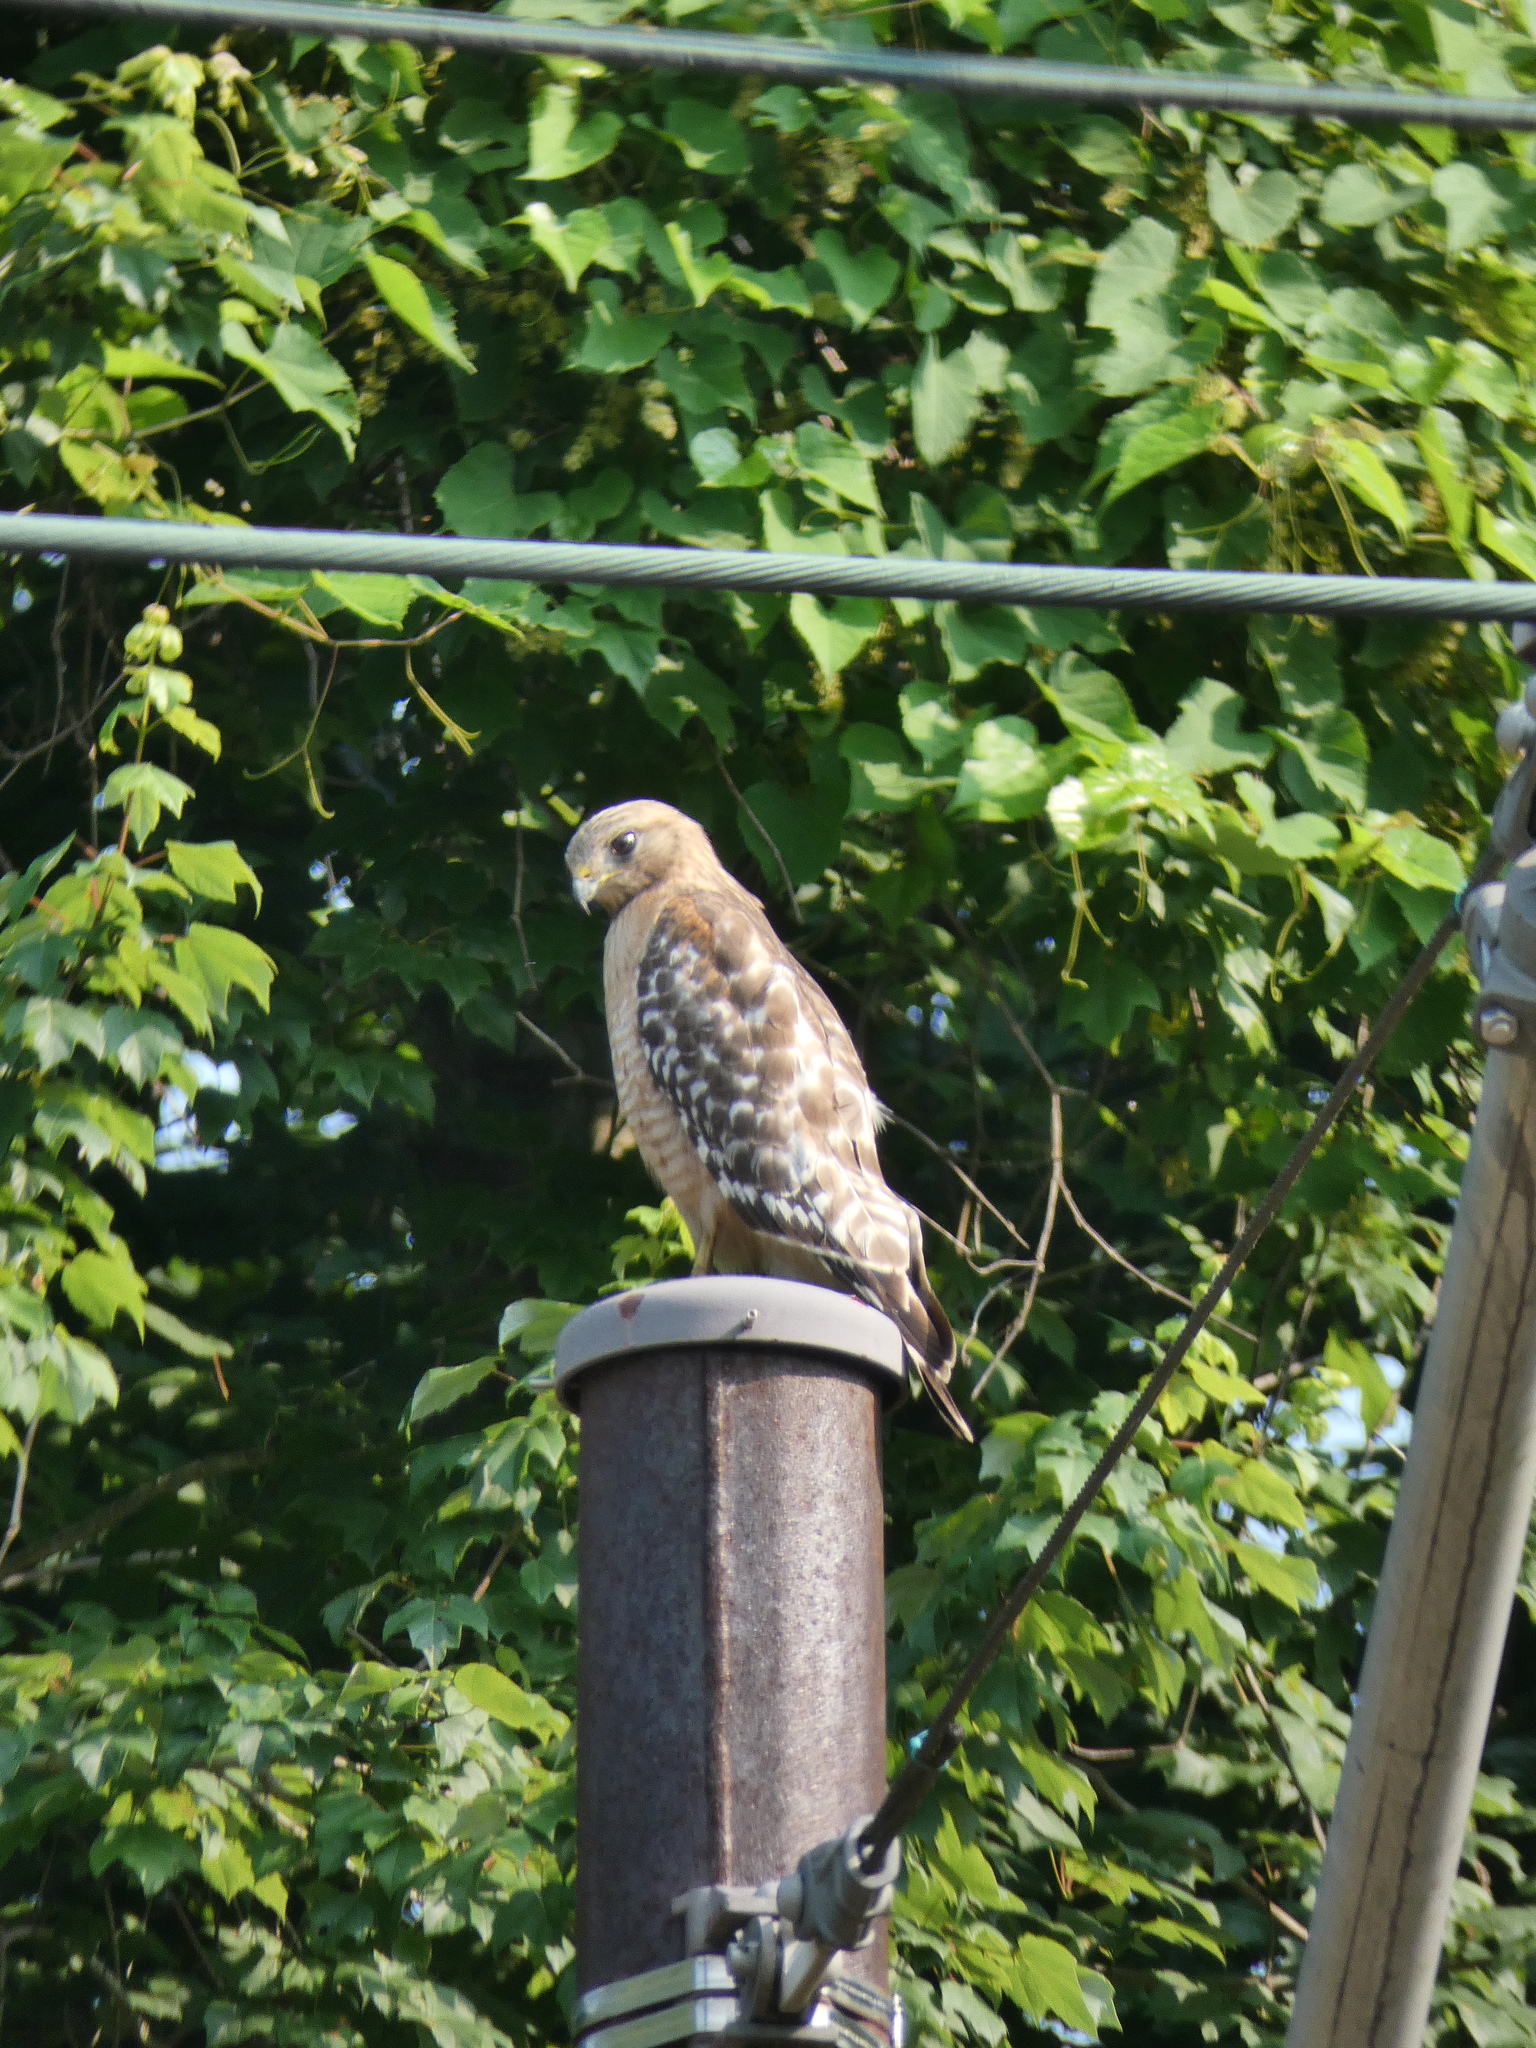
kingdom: Animalia
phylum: Chordata
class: Aves
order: Accipitriformes
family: Accipitridae
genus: Buteo
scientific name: Buteo lineatus
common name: Red-shouldered hawk
